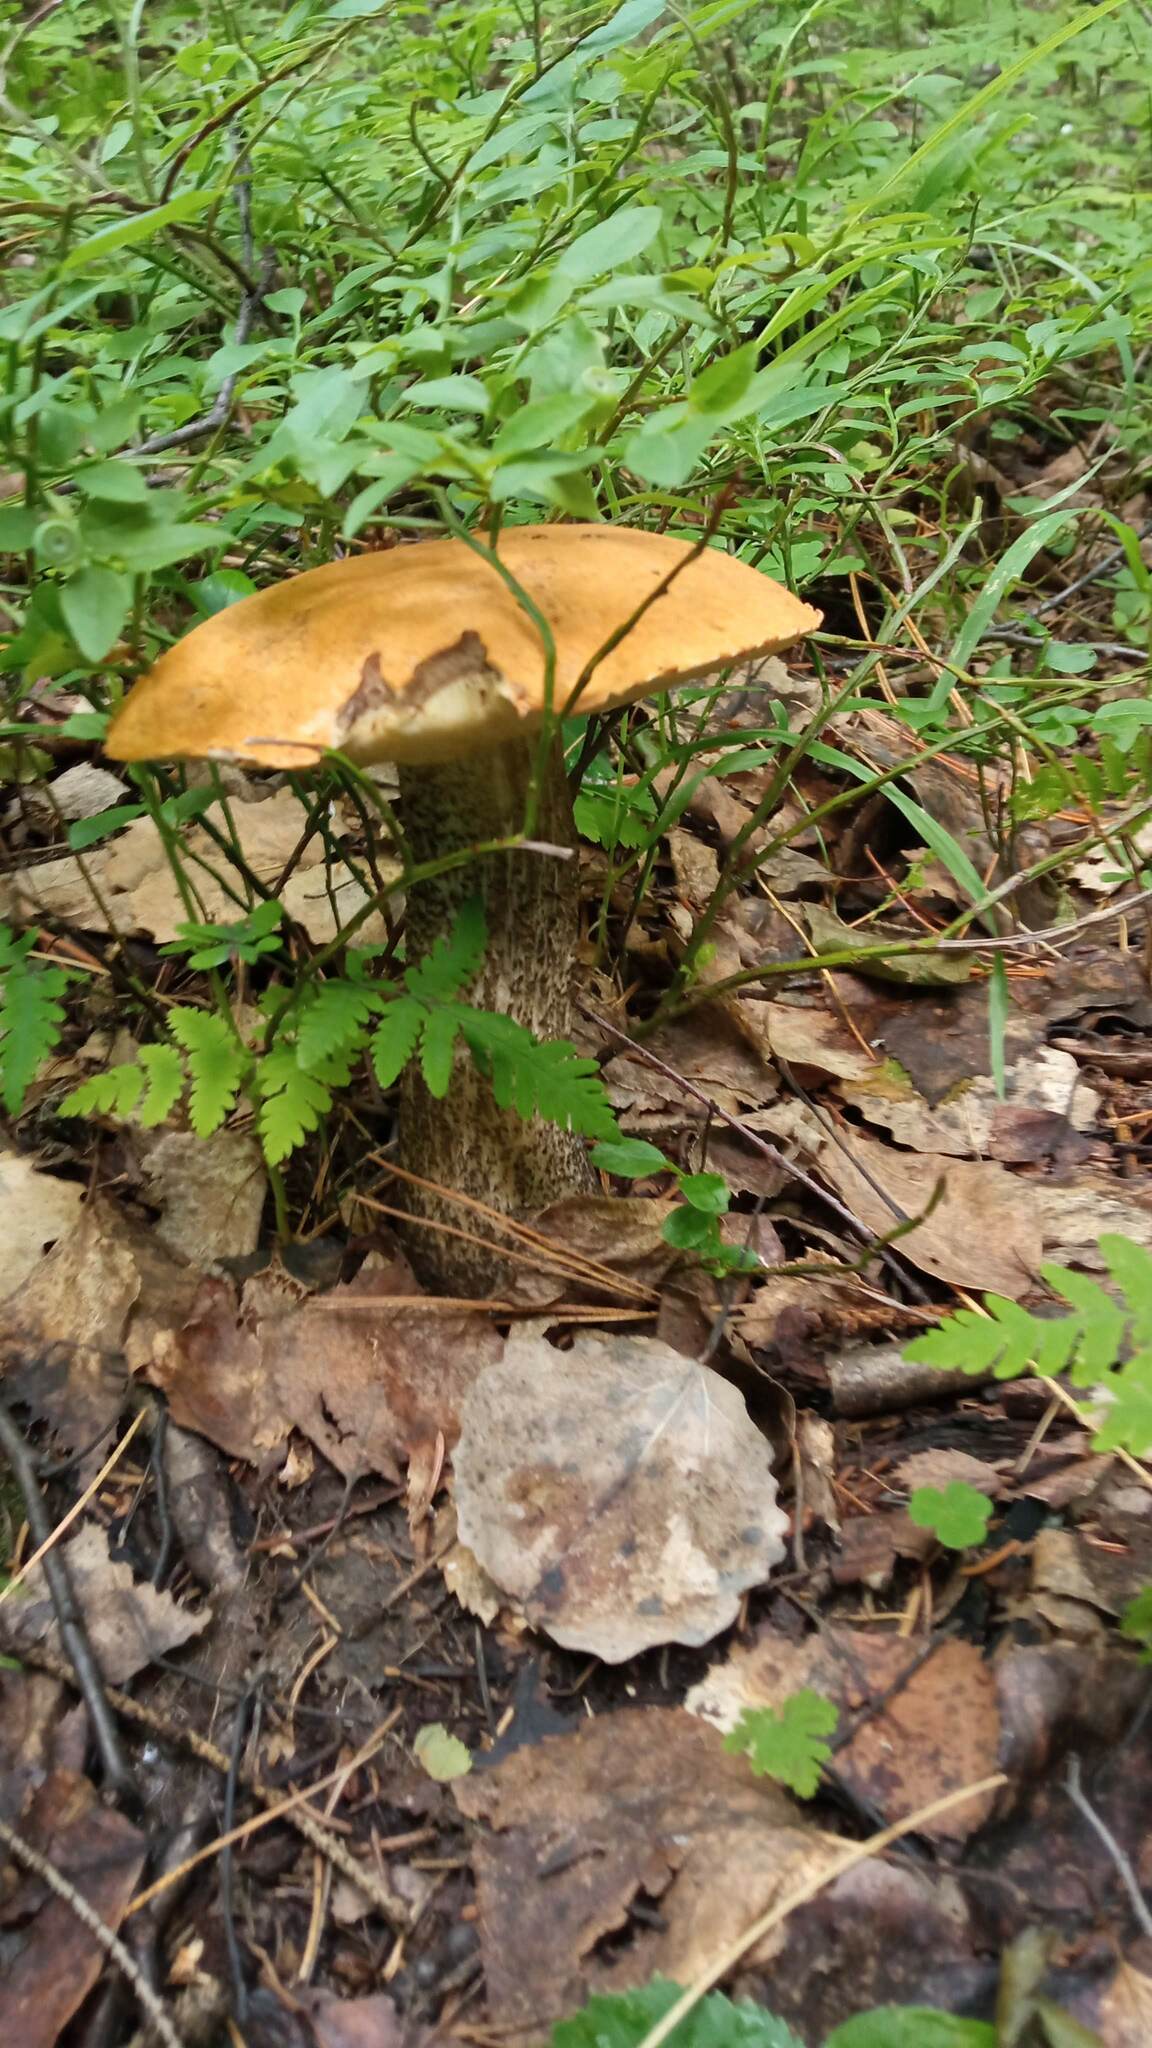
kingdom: Fungi
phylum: Basidiomycota
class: Agaricomycetes
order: Boletales
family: Boletaceae
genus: Leccinum
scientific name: Leccinum versipelle
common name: Orange birch bolete
